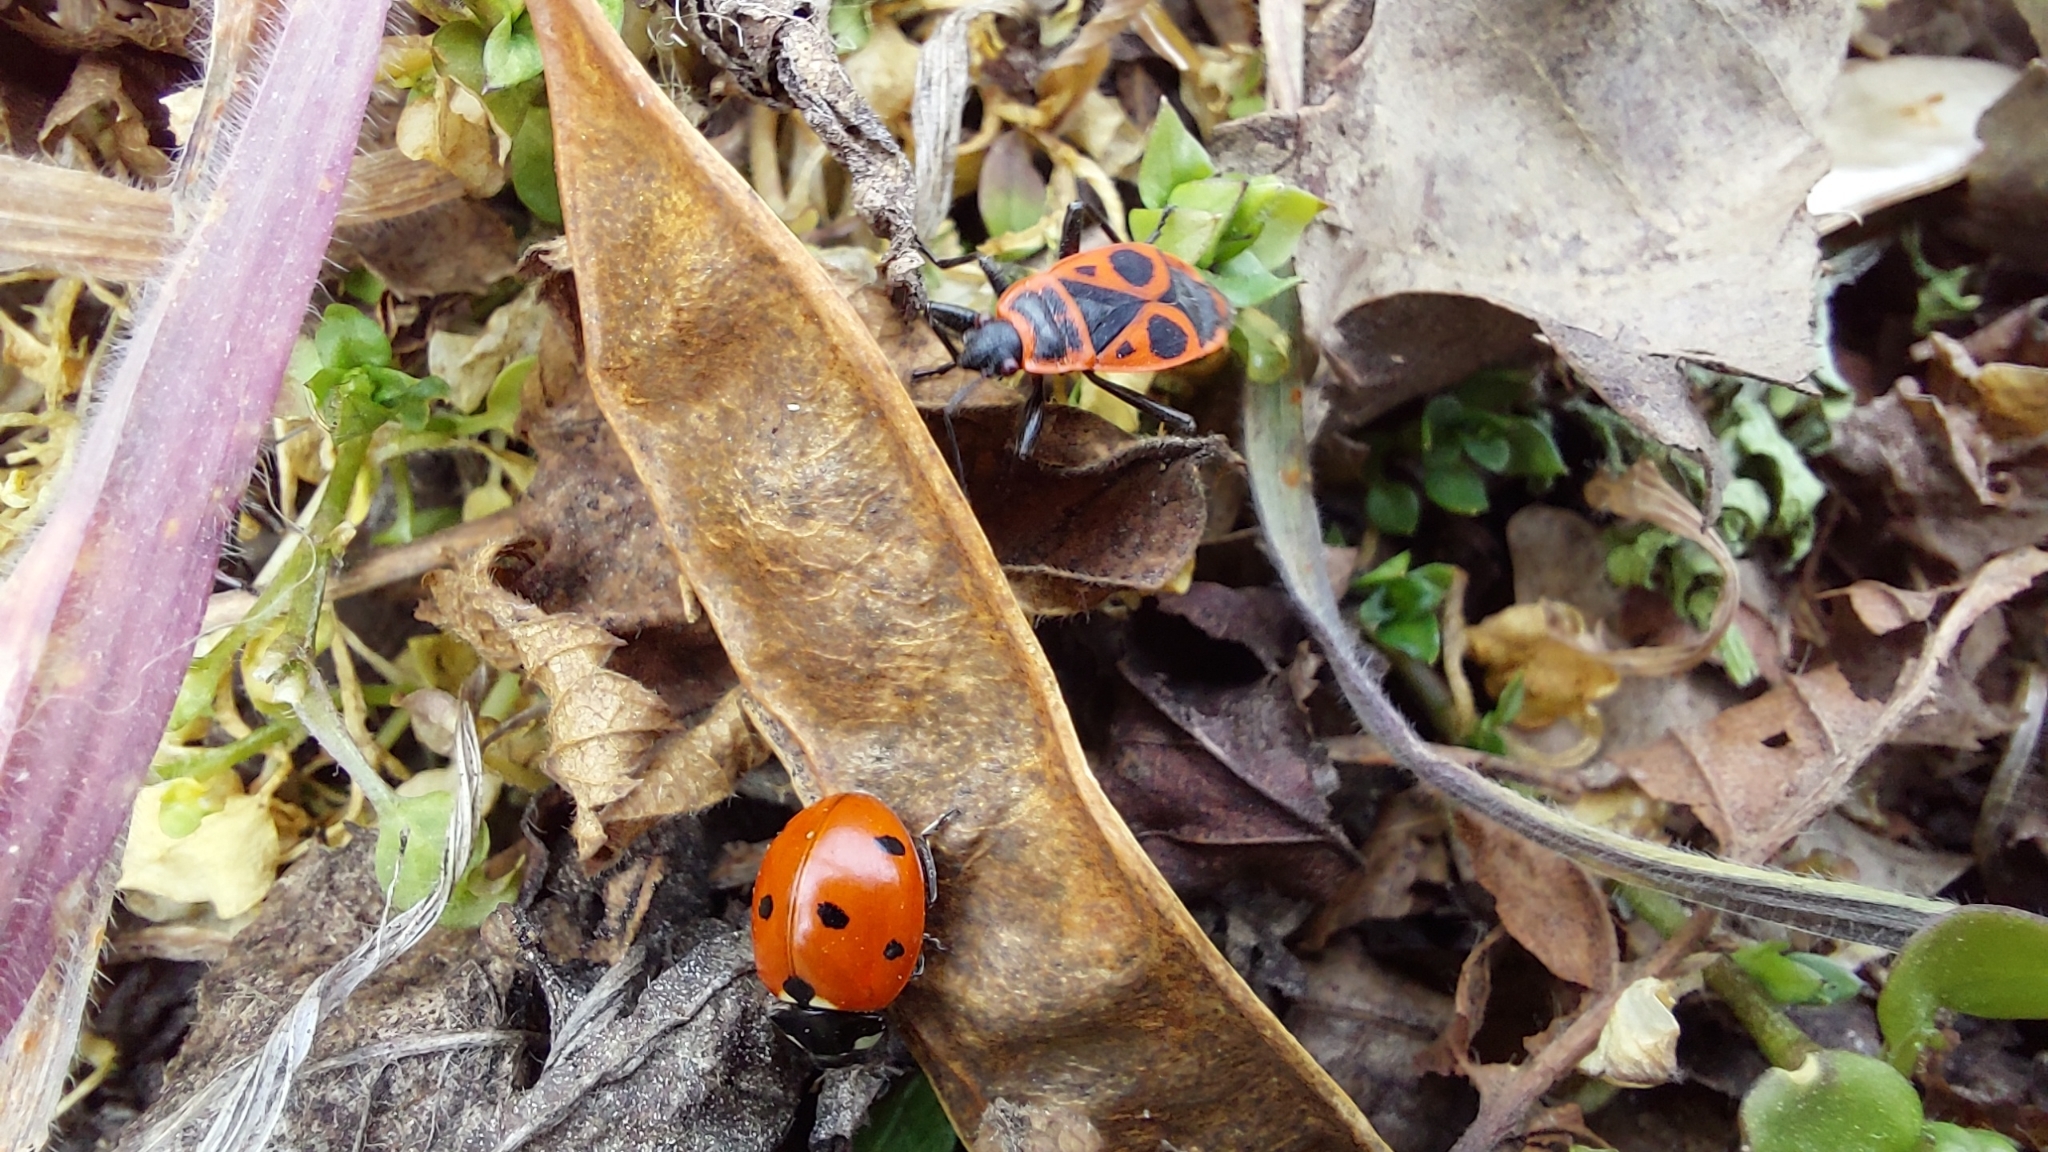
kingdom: Animalia
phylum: Arthropoda
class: Insecta
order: Coleoptera
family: Coccinellidae
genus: Coccinella
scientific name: Coccinella septempunctata
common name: Sevenspotted lady beetle
